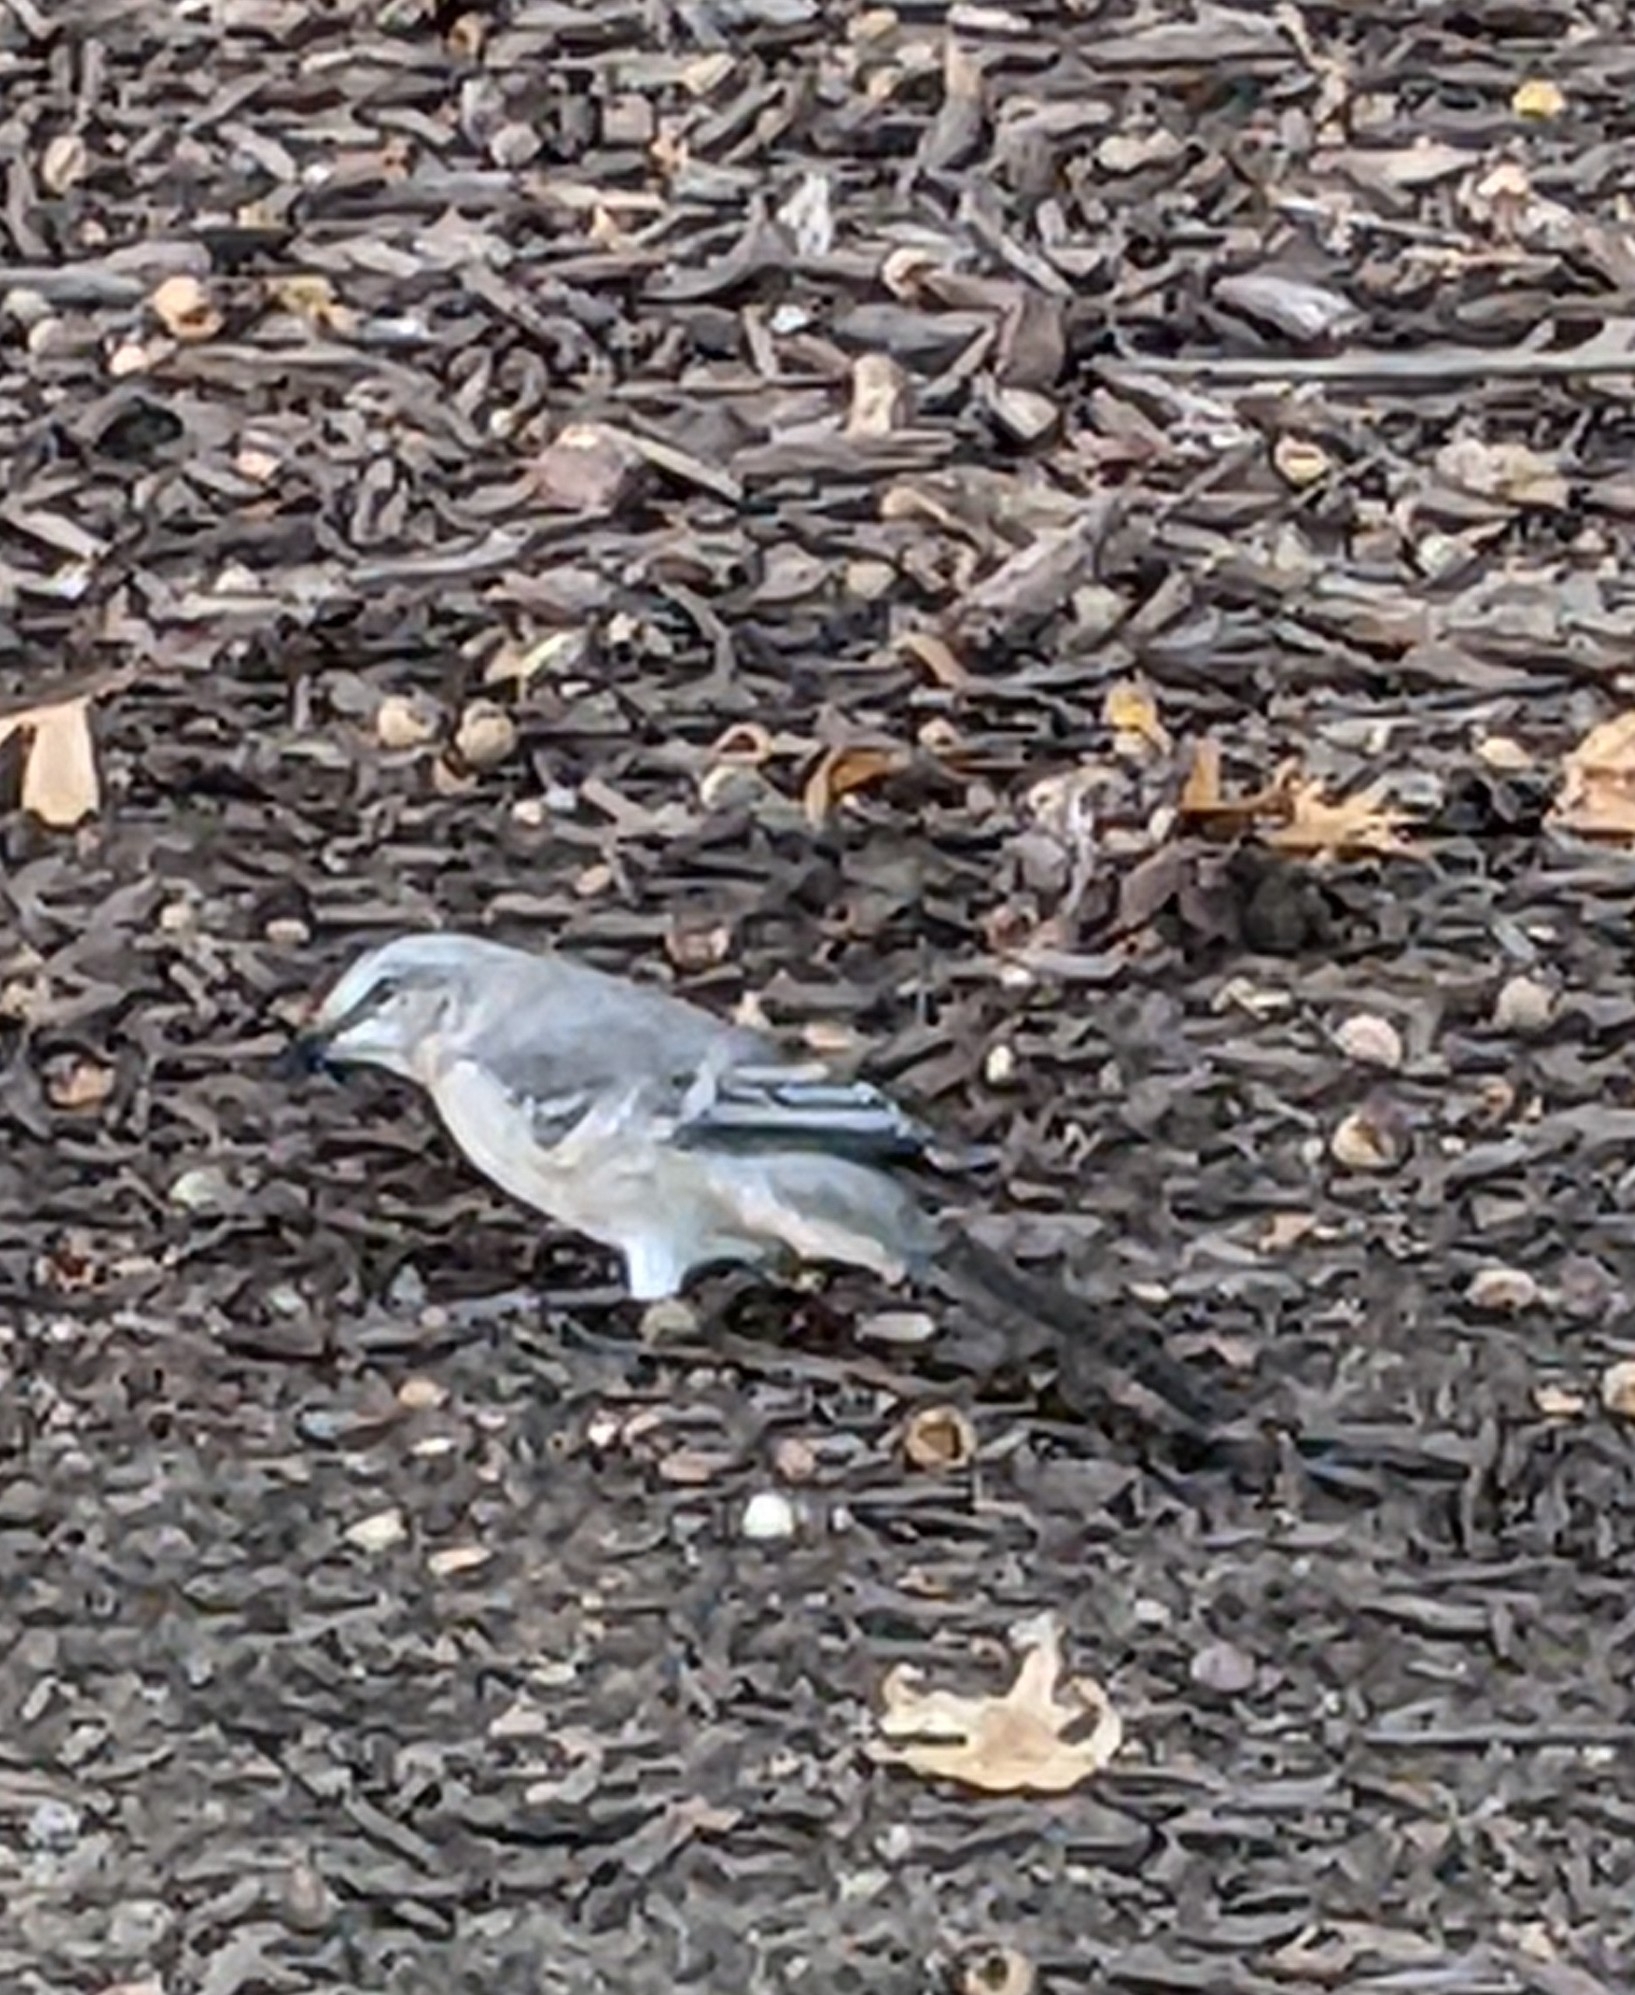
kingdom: Animalia
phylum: Chordata
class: Aves
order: Passeriformes
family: Mimidae
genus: Mimus
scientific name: Mimus polyglottos
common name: Northern mockingbird
